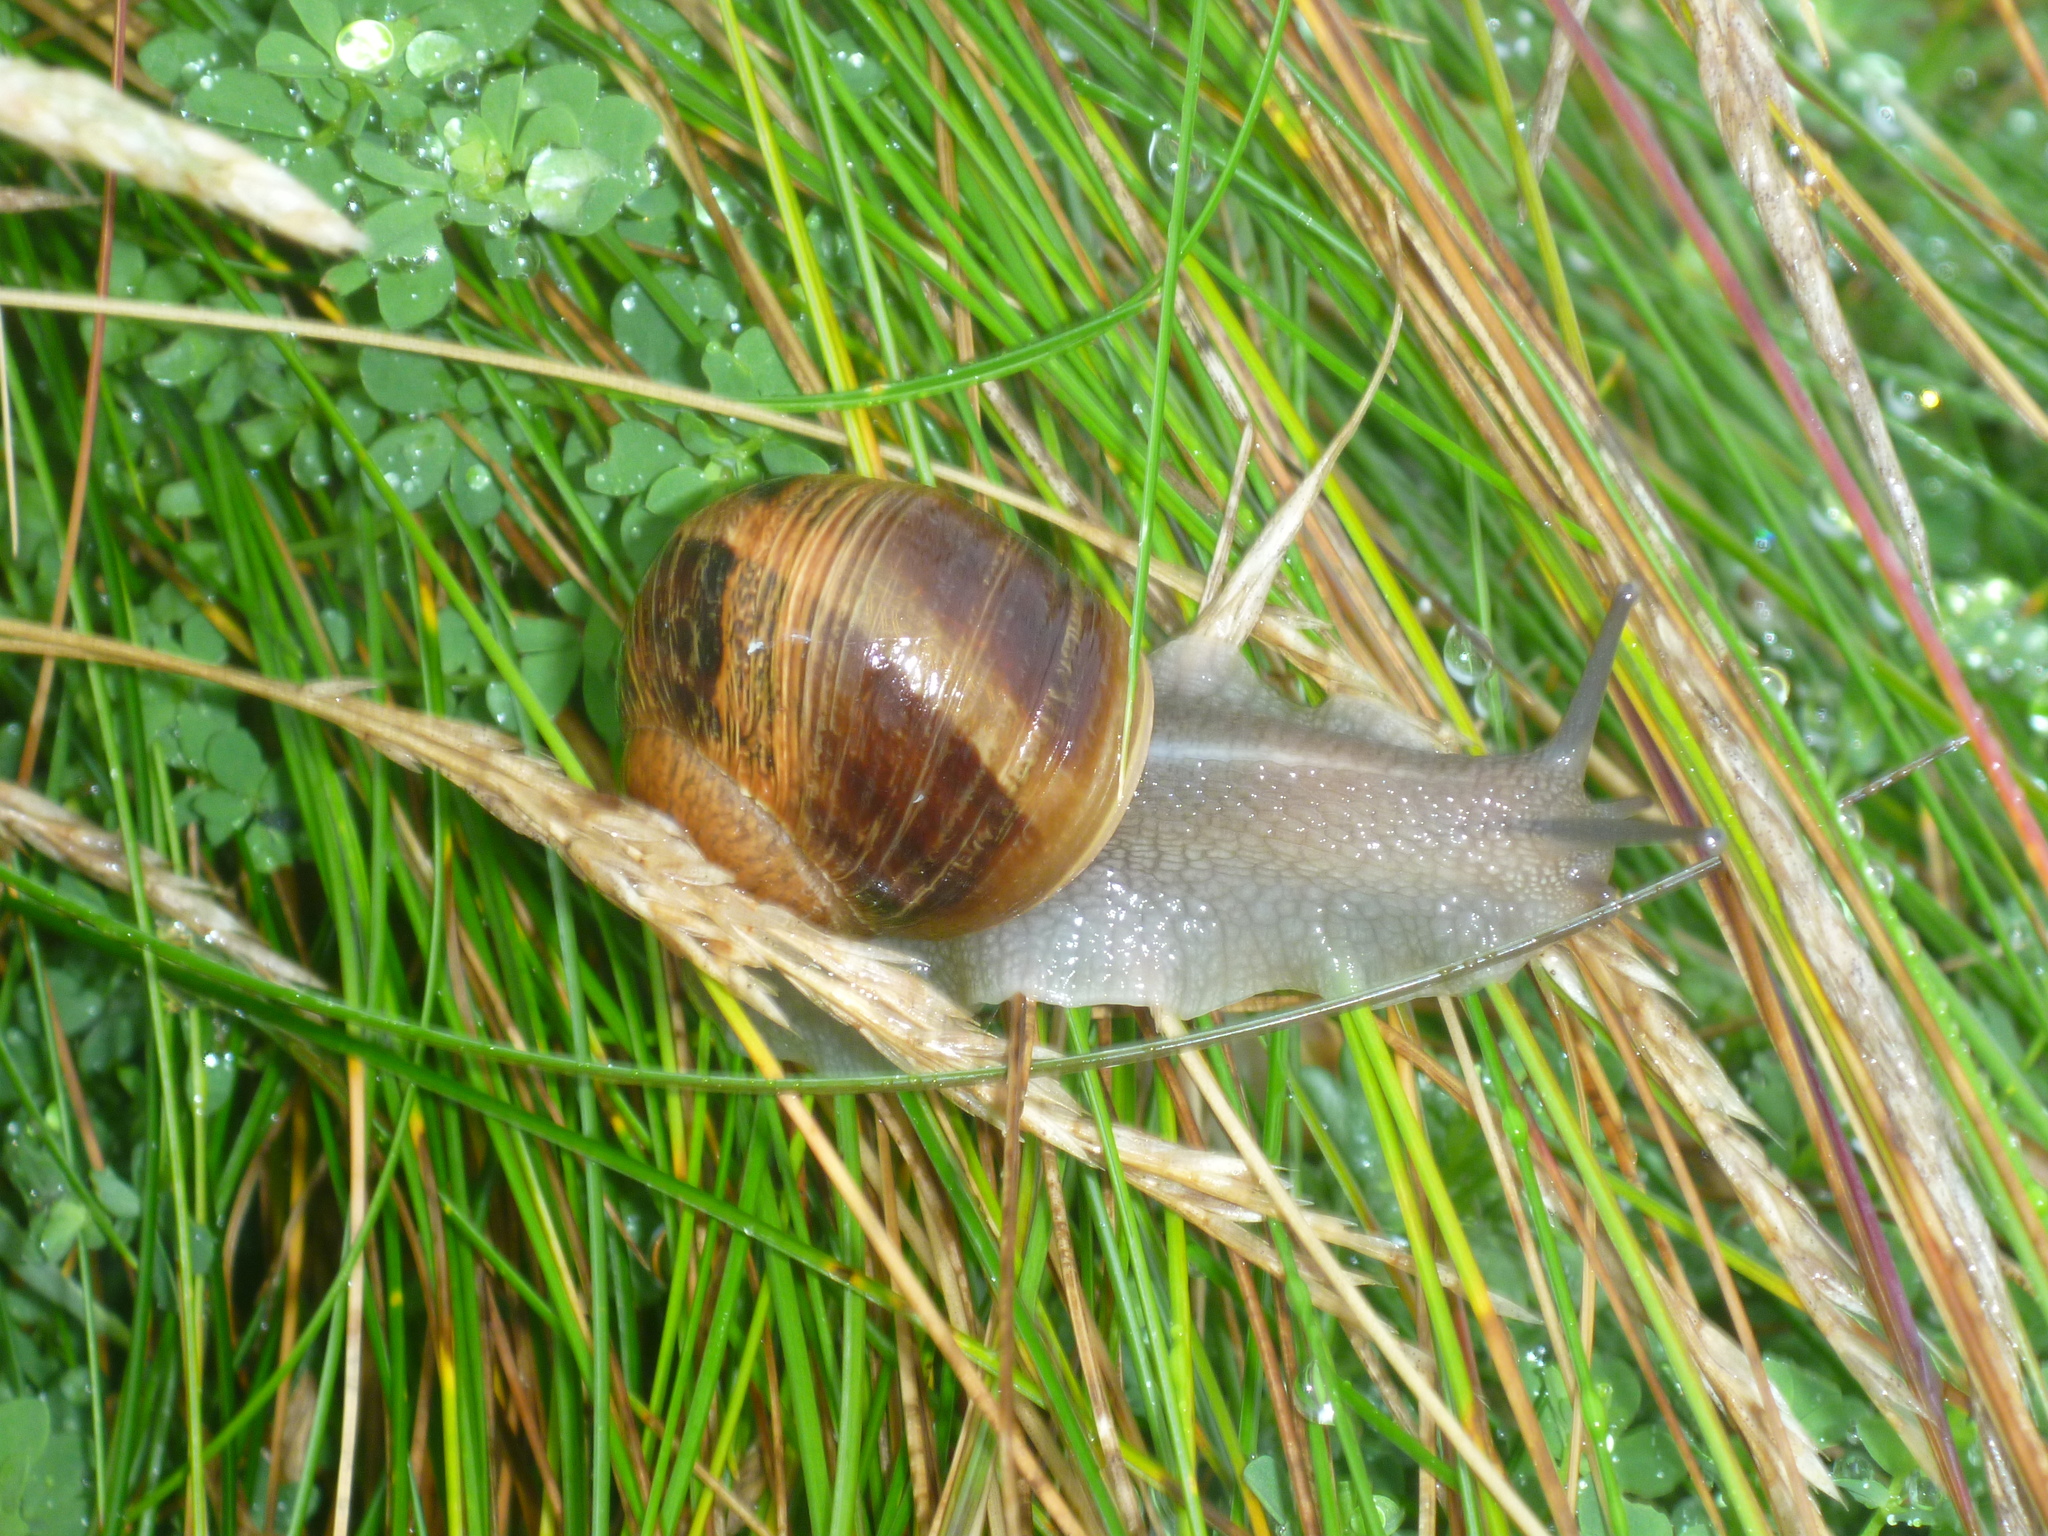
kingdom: Animalia
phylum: Mollusca
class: Gastropoda
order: Stylommatophora
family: Helicidae
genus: Cornu
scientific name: Cornu aspersum
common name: Brown garden snail
